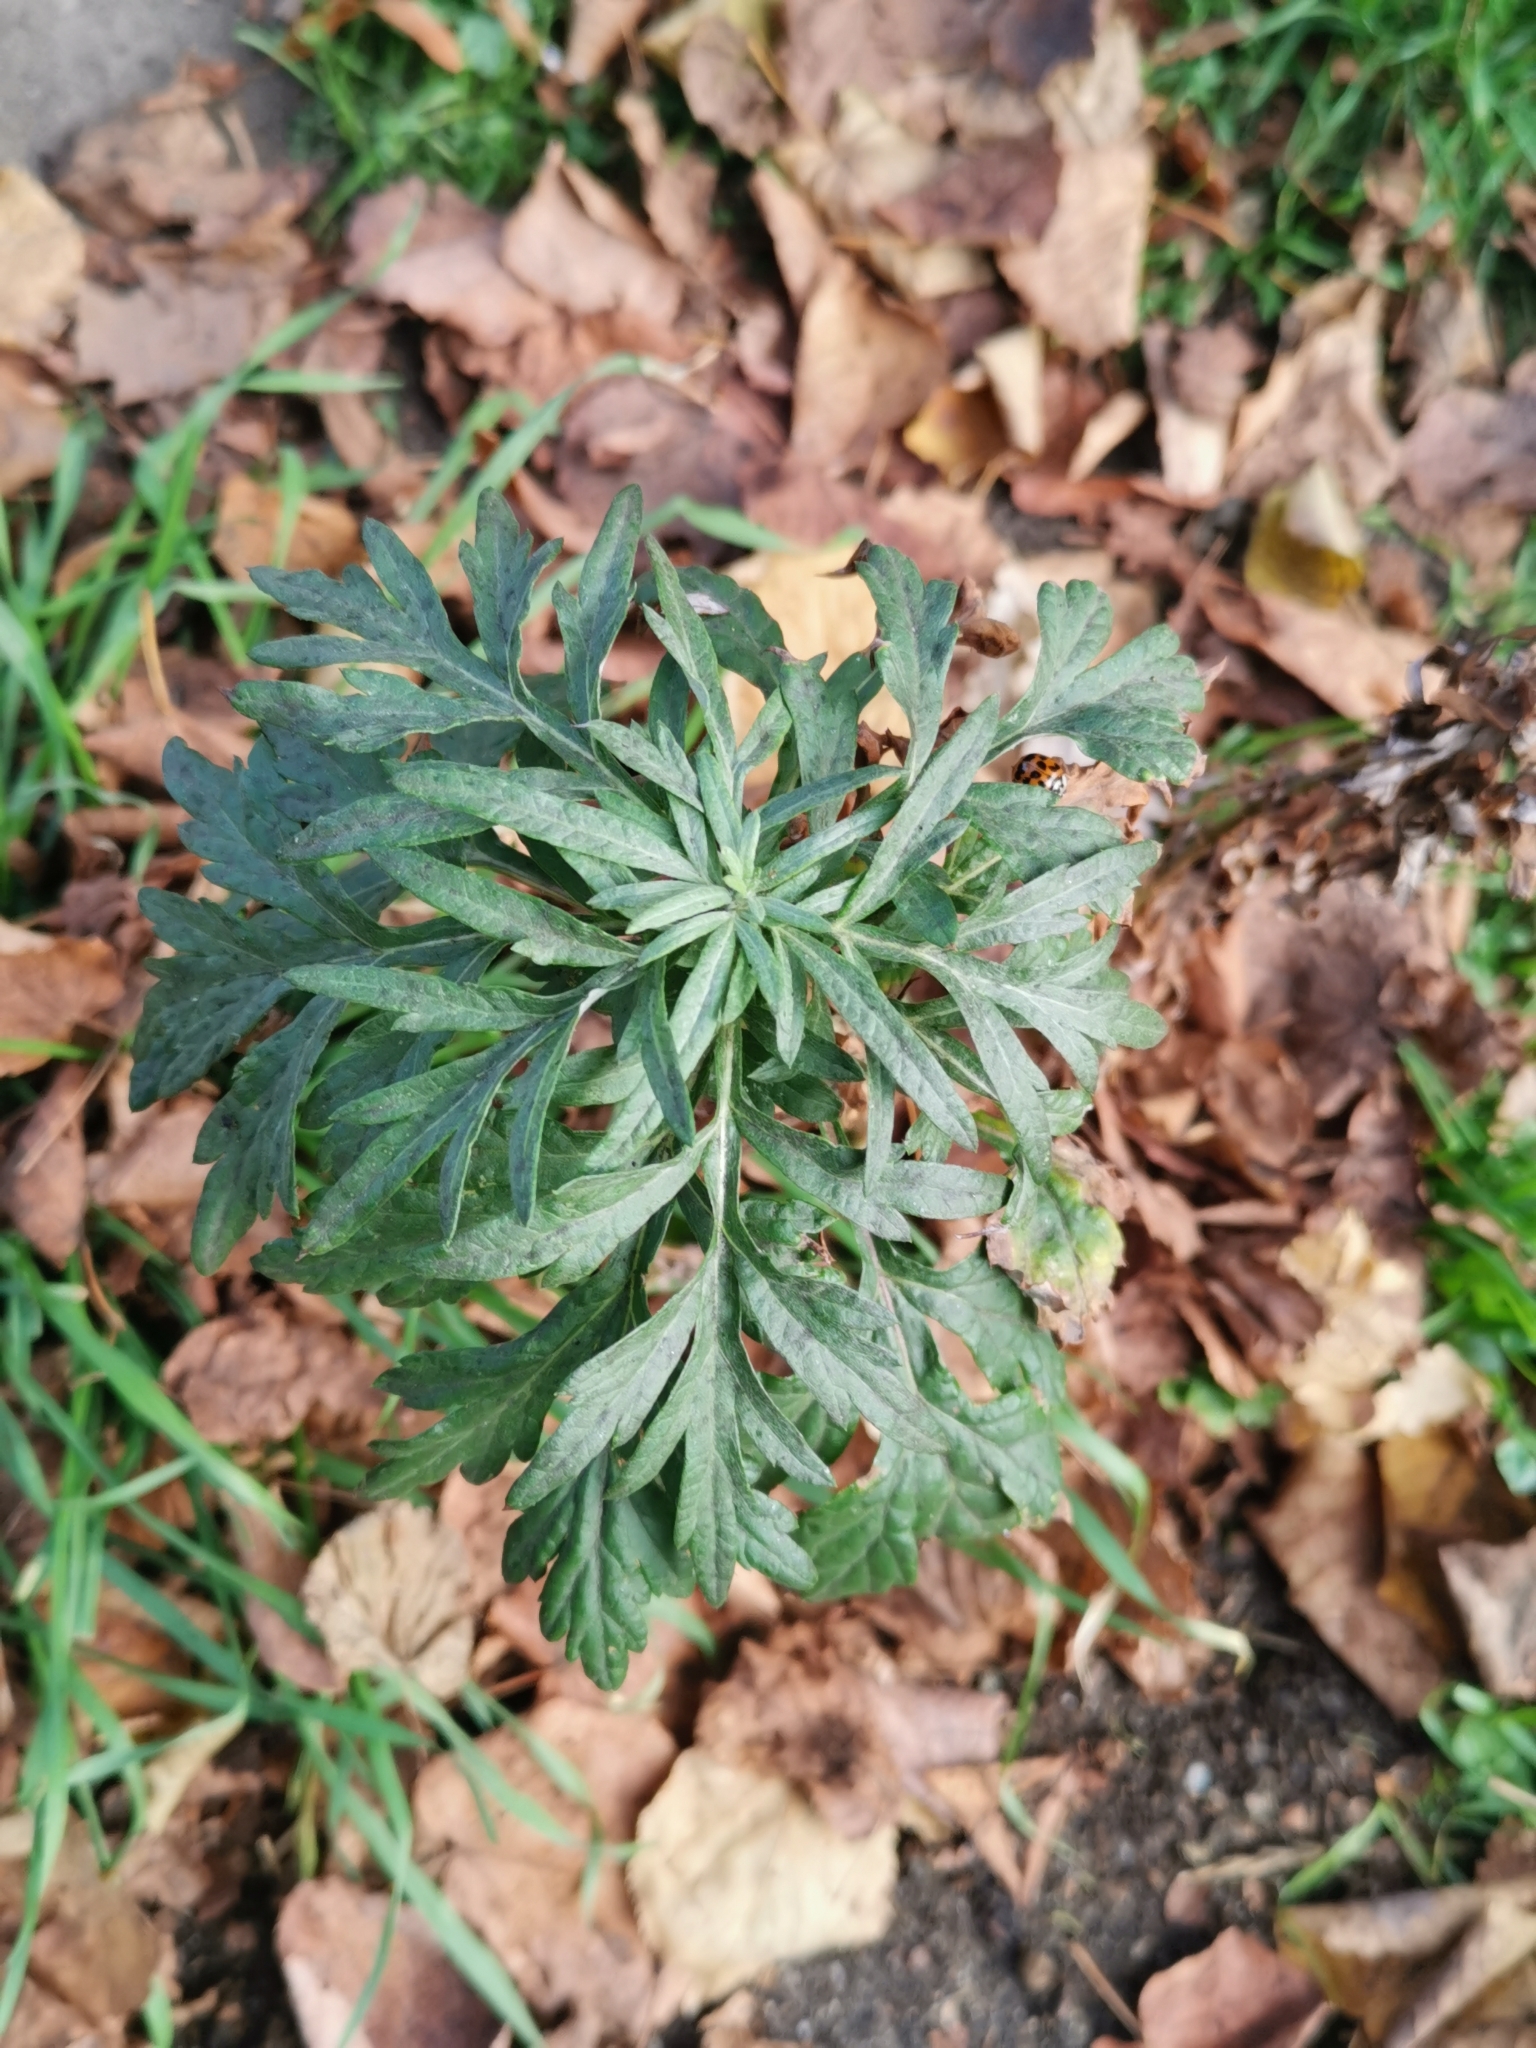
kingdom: Plantae
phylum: Tracheophyta
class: Magnoliopsida
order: Asterales
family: Asteraceae
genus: Artemisia
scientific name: Artemisia vulgaris
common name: Mugwort
